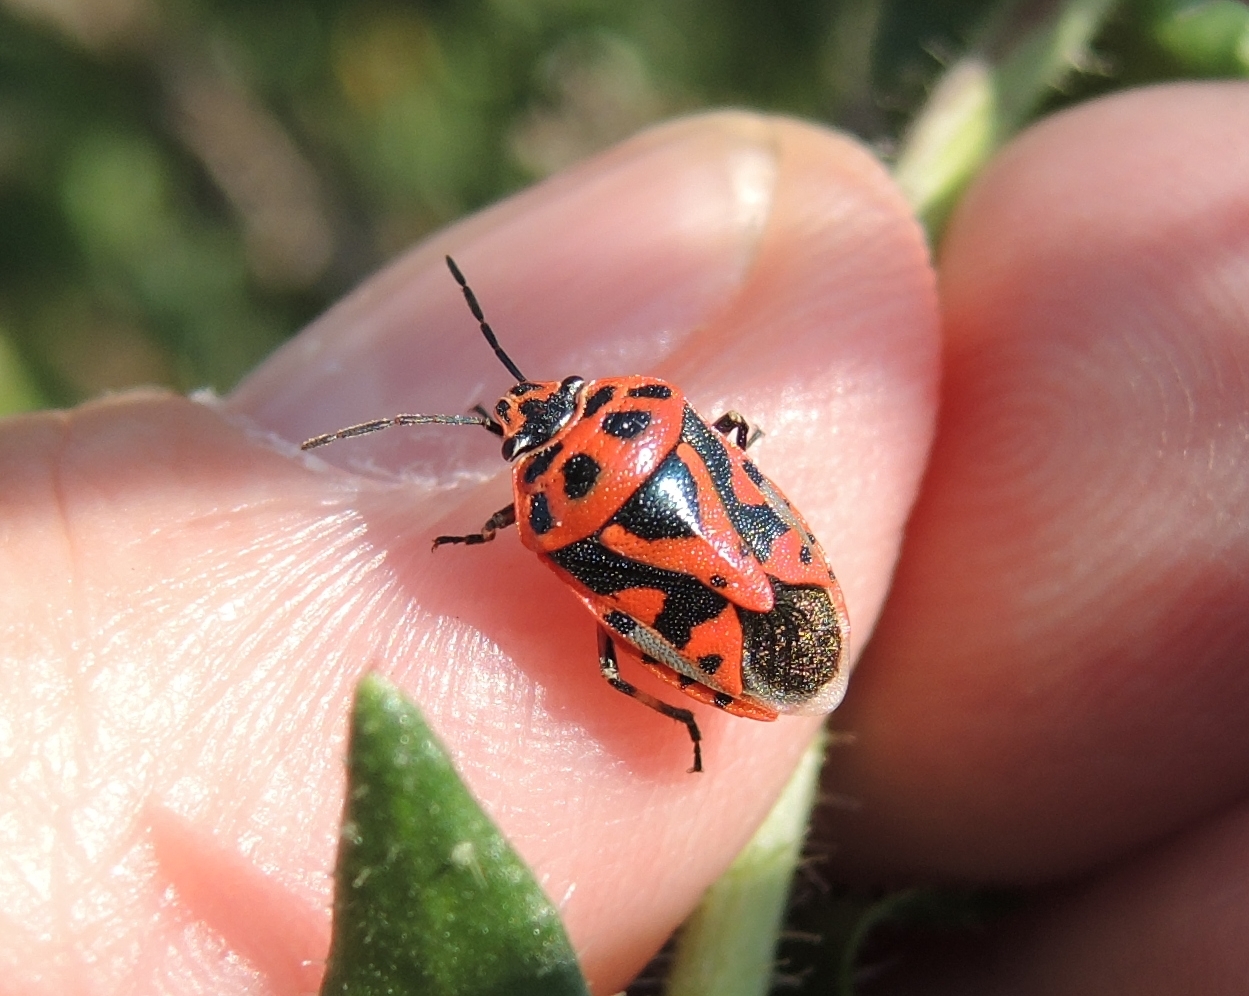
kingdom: Animalia
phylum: Arthropoda
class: Insecta
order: Hemiptera
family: Pentatomidae
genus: Eurydema
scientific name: Eurydema ornata
